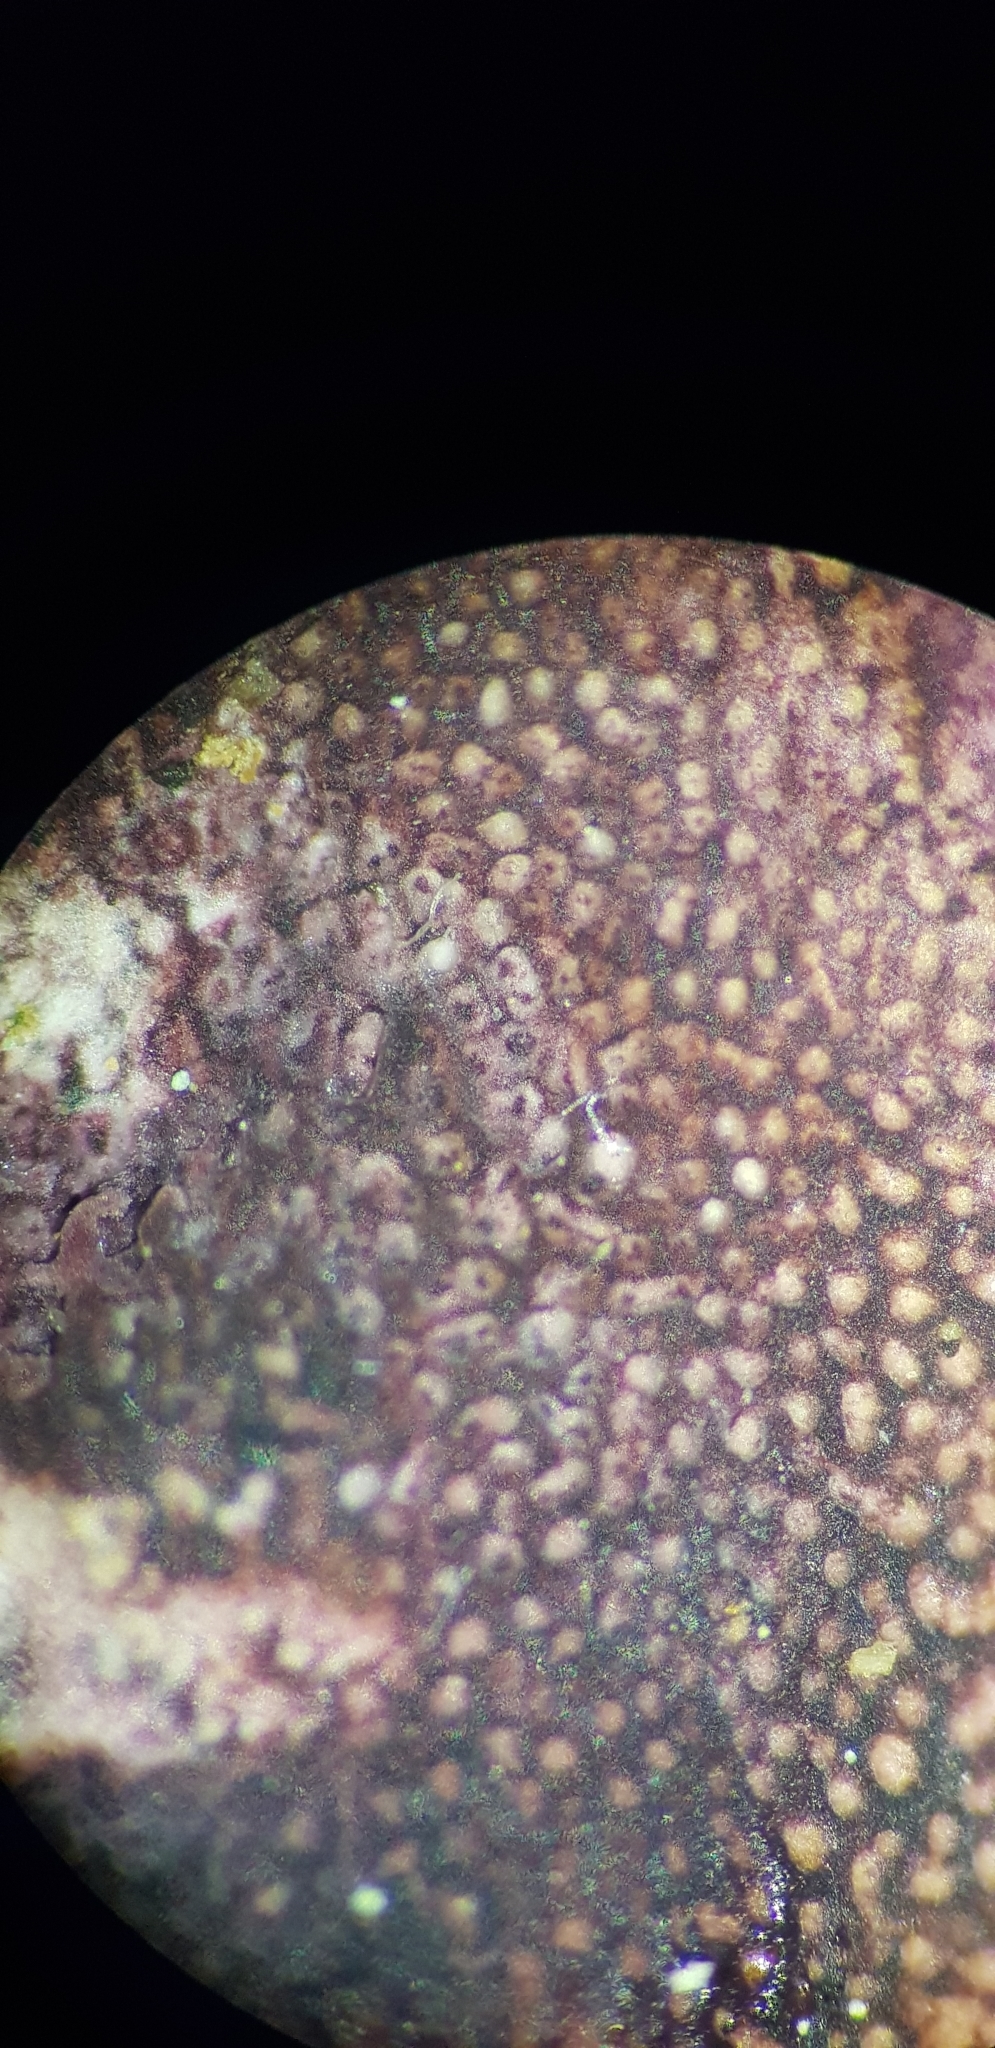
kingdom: Fungi
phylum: Basidiomycota
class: Agaricomycetes
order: Agaricales
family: Cyphellaceae
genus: Chondrostereum
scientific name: Chondrostereum purpureum
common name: Silver leaf disease
